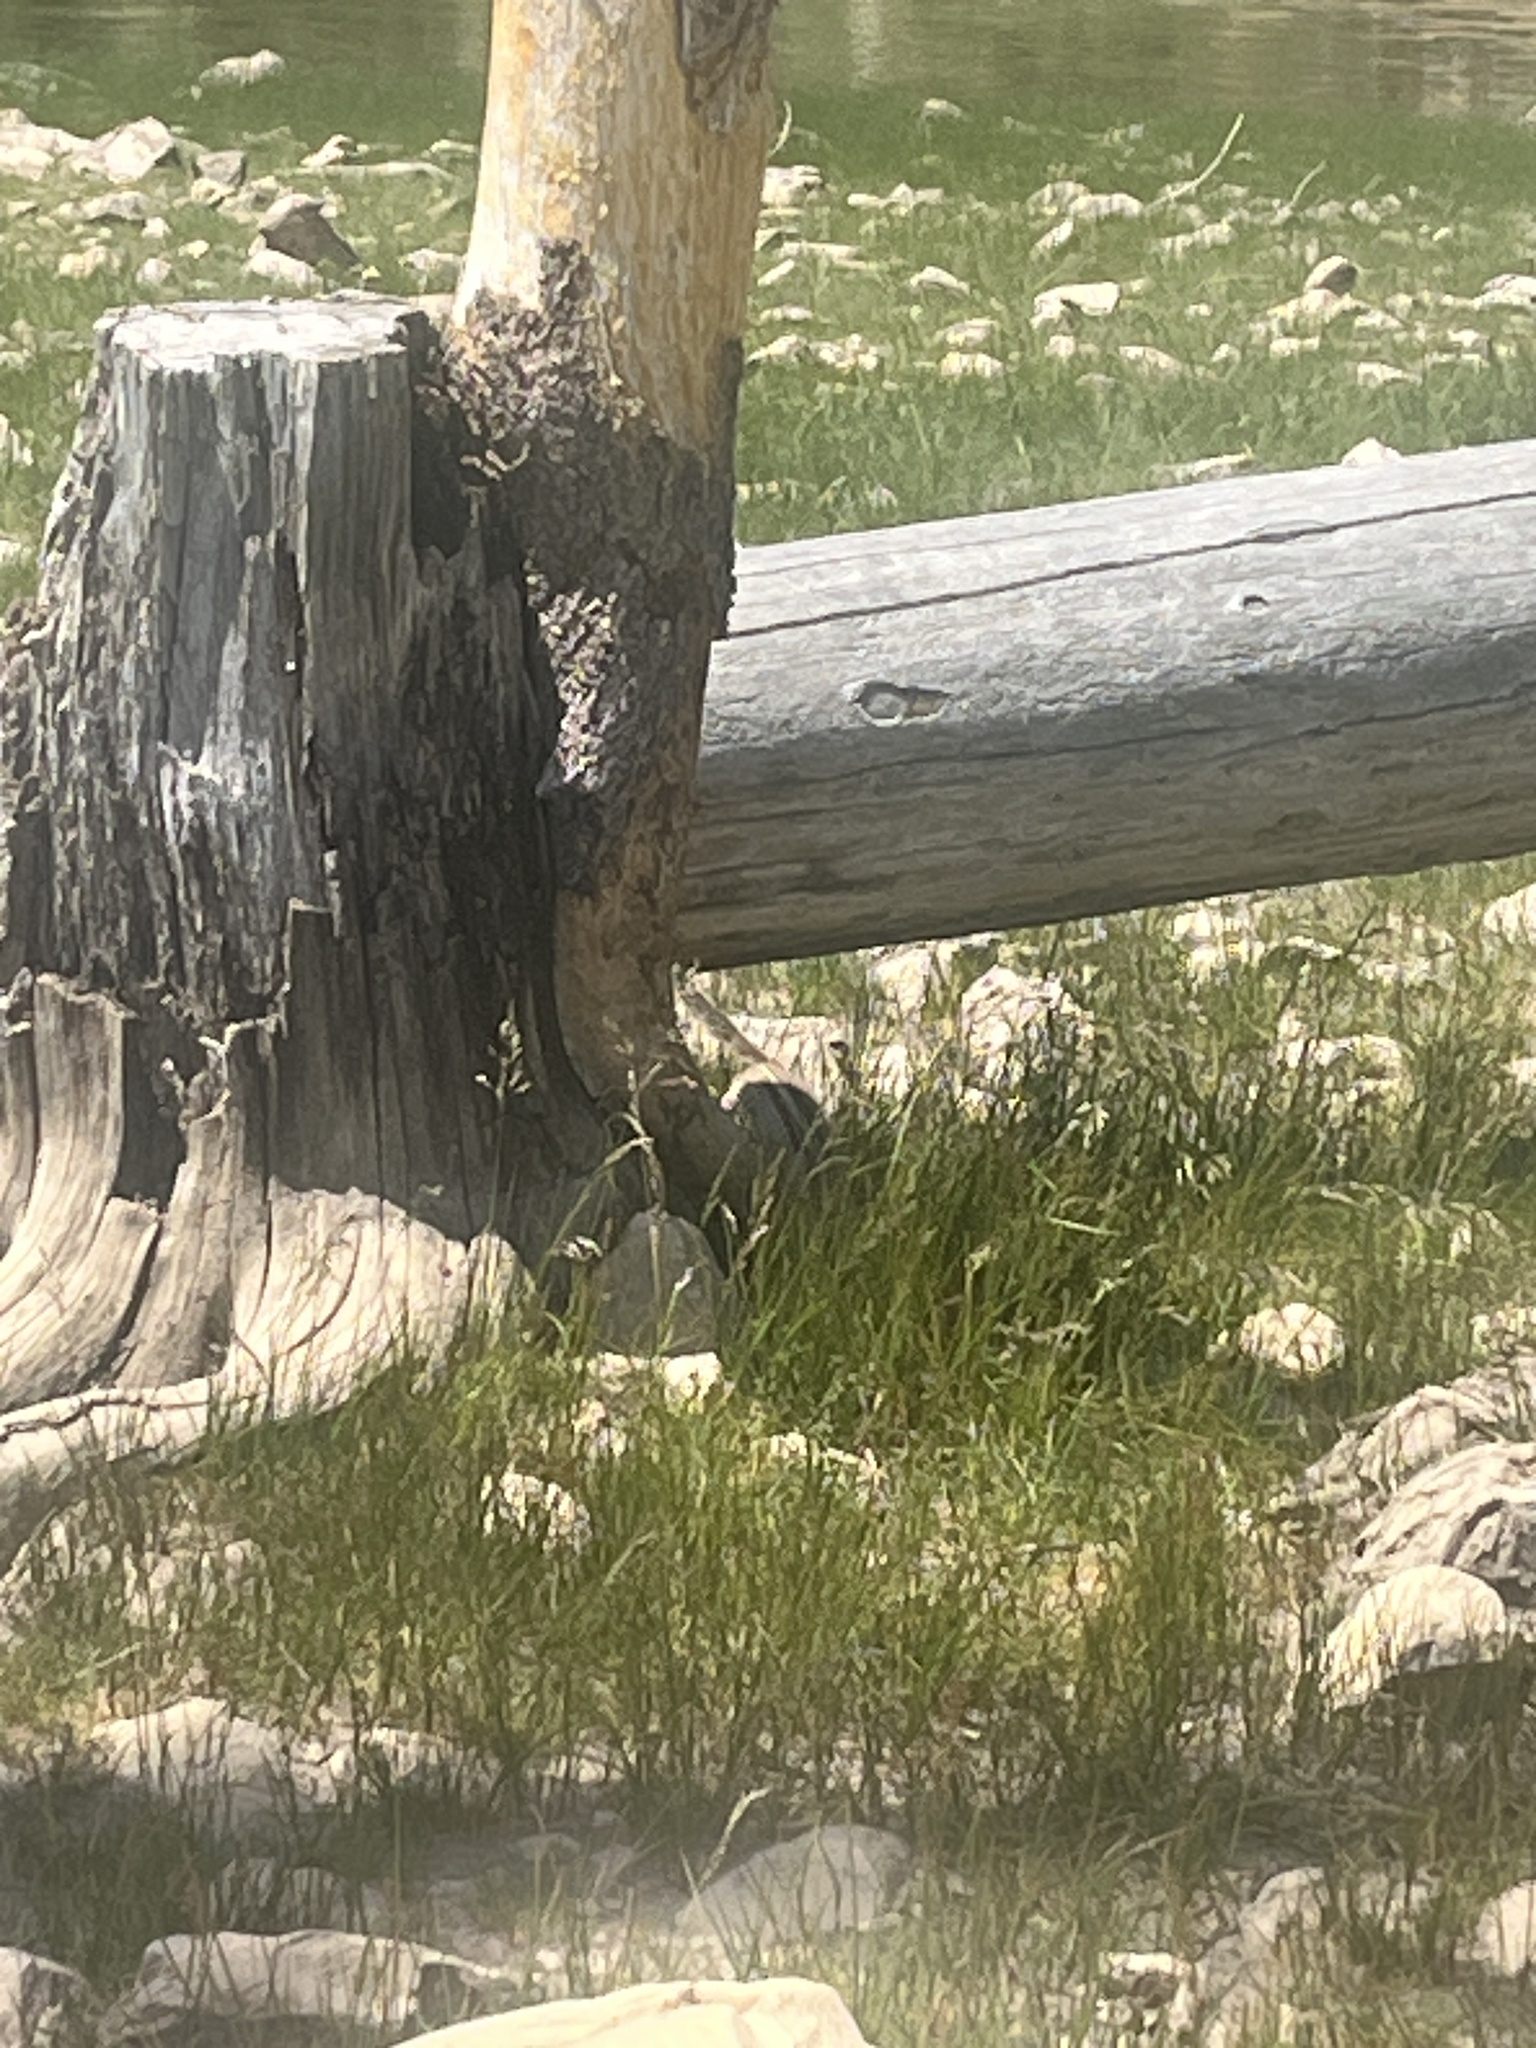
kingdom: Animalia
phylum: Chordata
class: Mammalia
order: Rodentia
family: Sciuridae
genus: Callospermophilus
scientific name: Callospermophilus lateralis
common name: Golden-mantled ground squirrel
